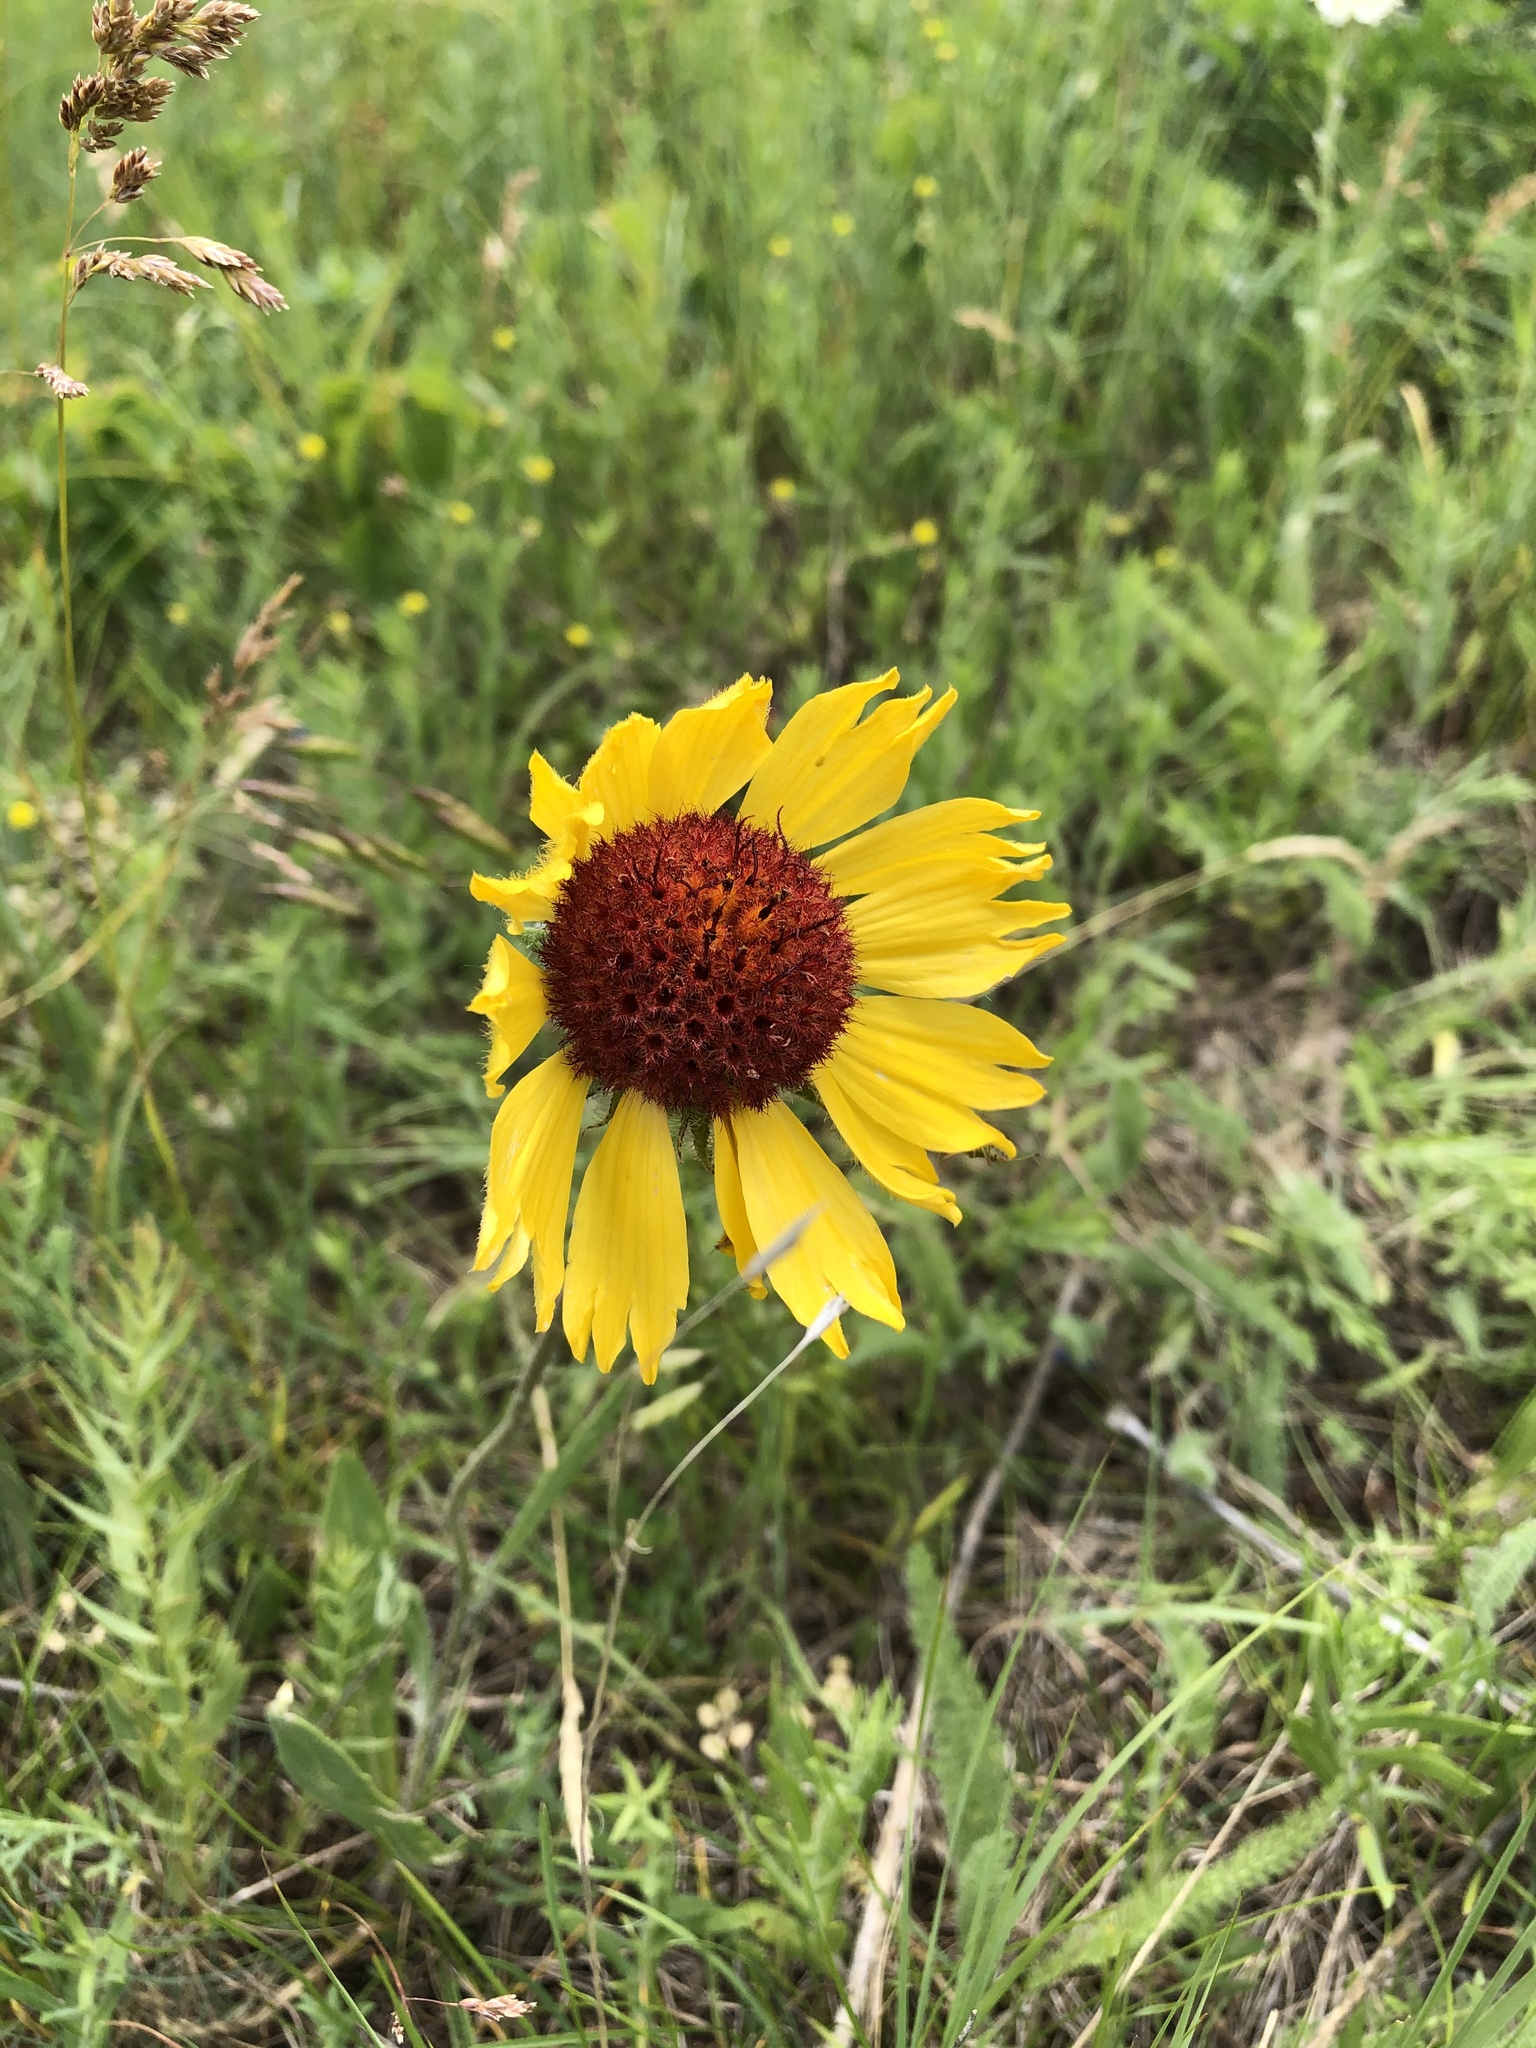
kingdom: Plantae
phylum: Tracheophyta
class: Magnoliopsida
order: Asterales
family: Asteraceae
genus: Gaillardia
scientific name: Gaillardia aristata
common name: Blanket-flower
